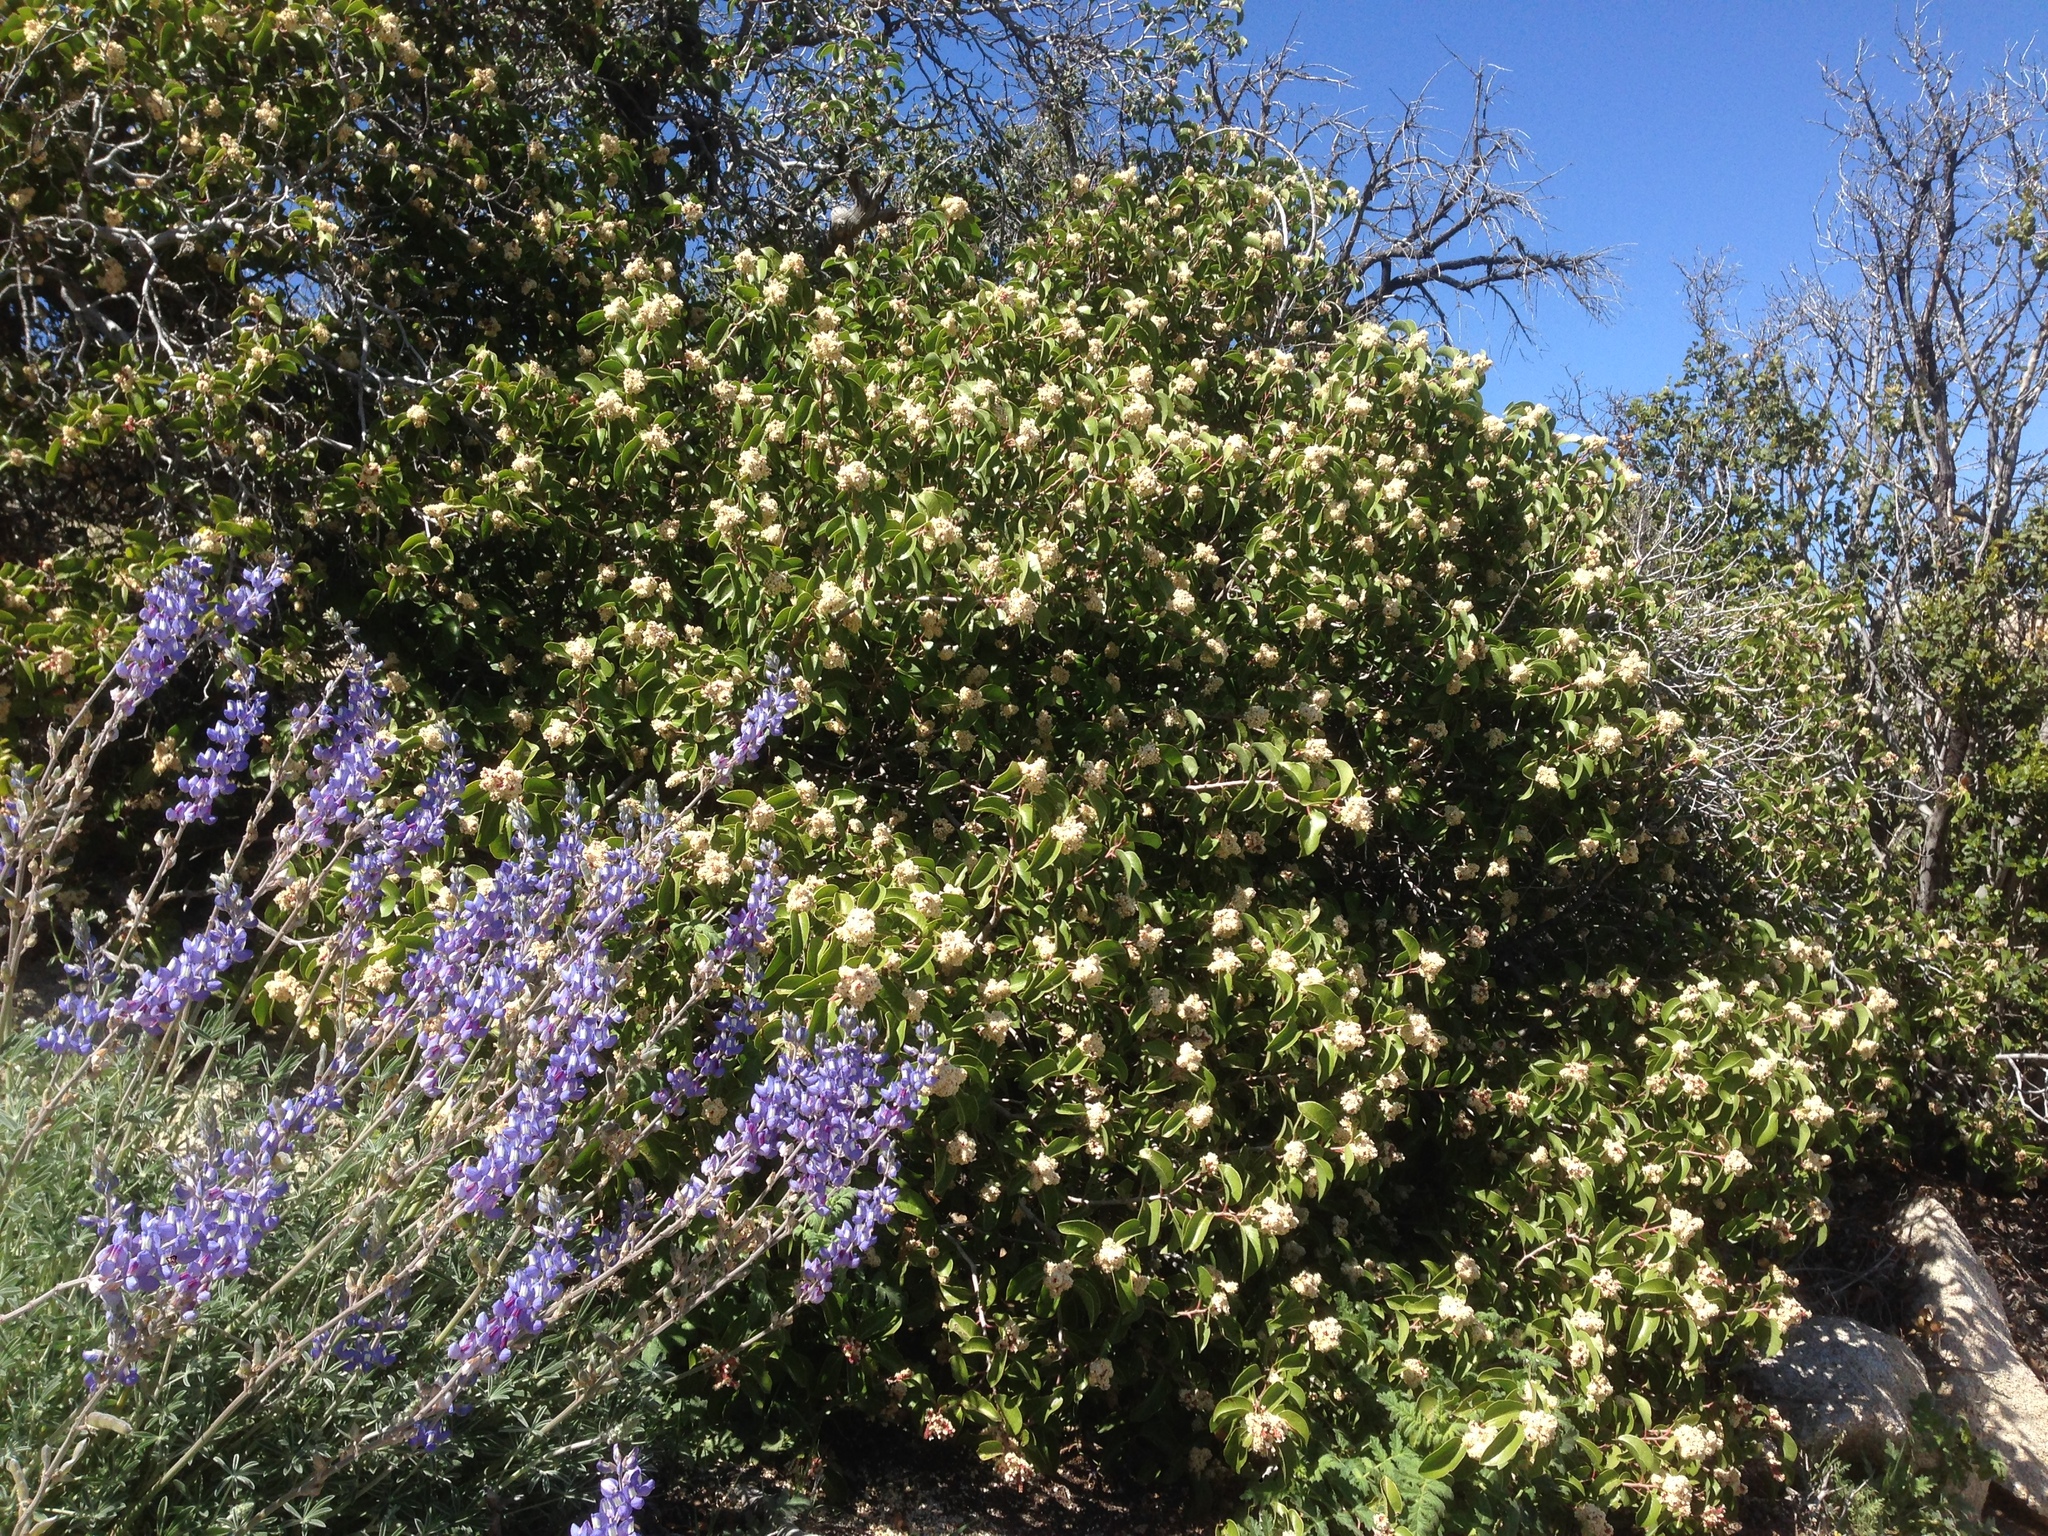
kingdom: Plantae
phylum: Tracheophyta
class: Magnoliopsida
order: Sapindales
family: Anacardiaceae
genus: Rhus
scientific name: Rhus ovata
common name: Sugar sumac
